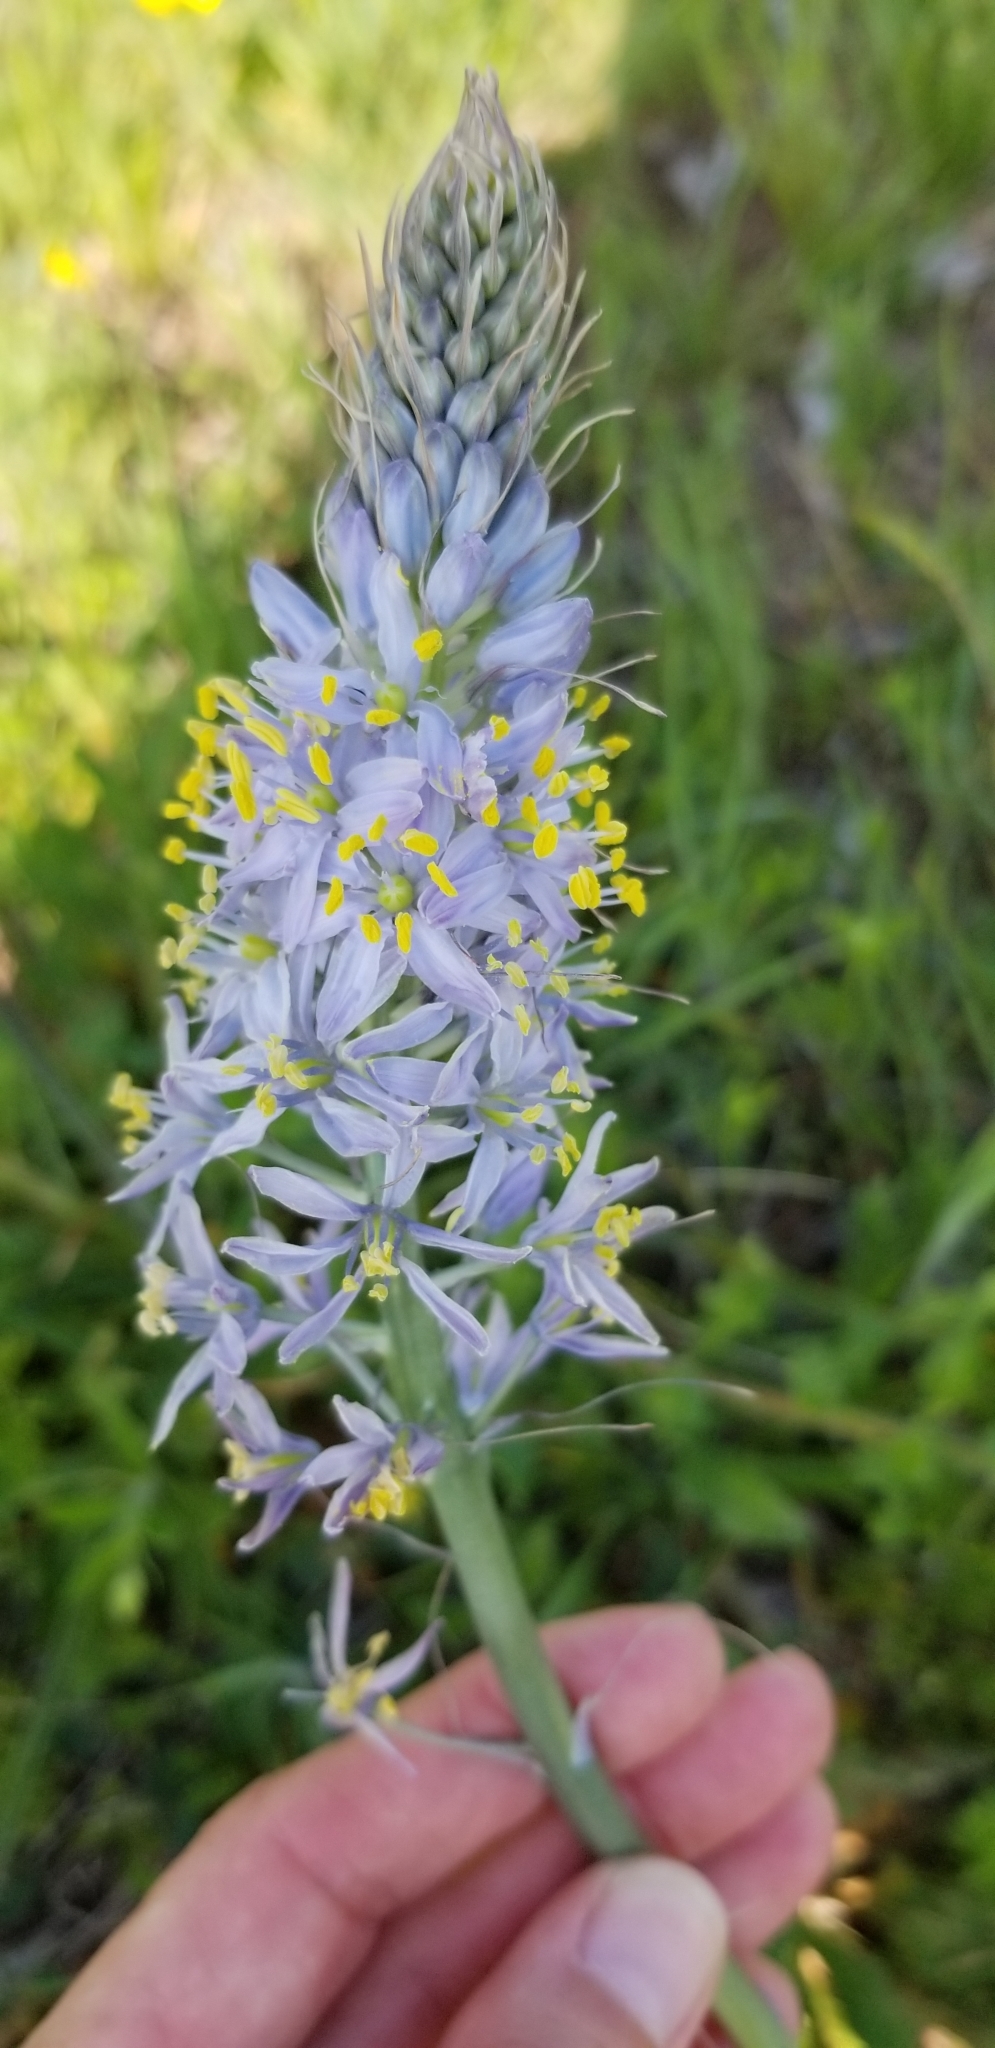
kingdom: Plantae
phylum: Tracheophyta
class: Liliopsida
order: Asparagales
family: Asparagaceae
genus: Camassia
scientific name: Camassia scilloides
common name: Wild hyacinth
